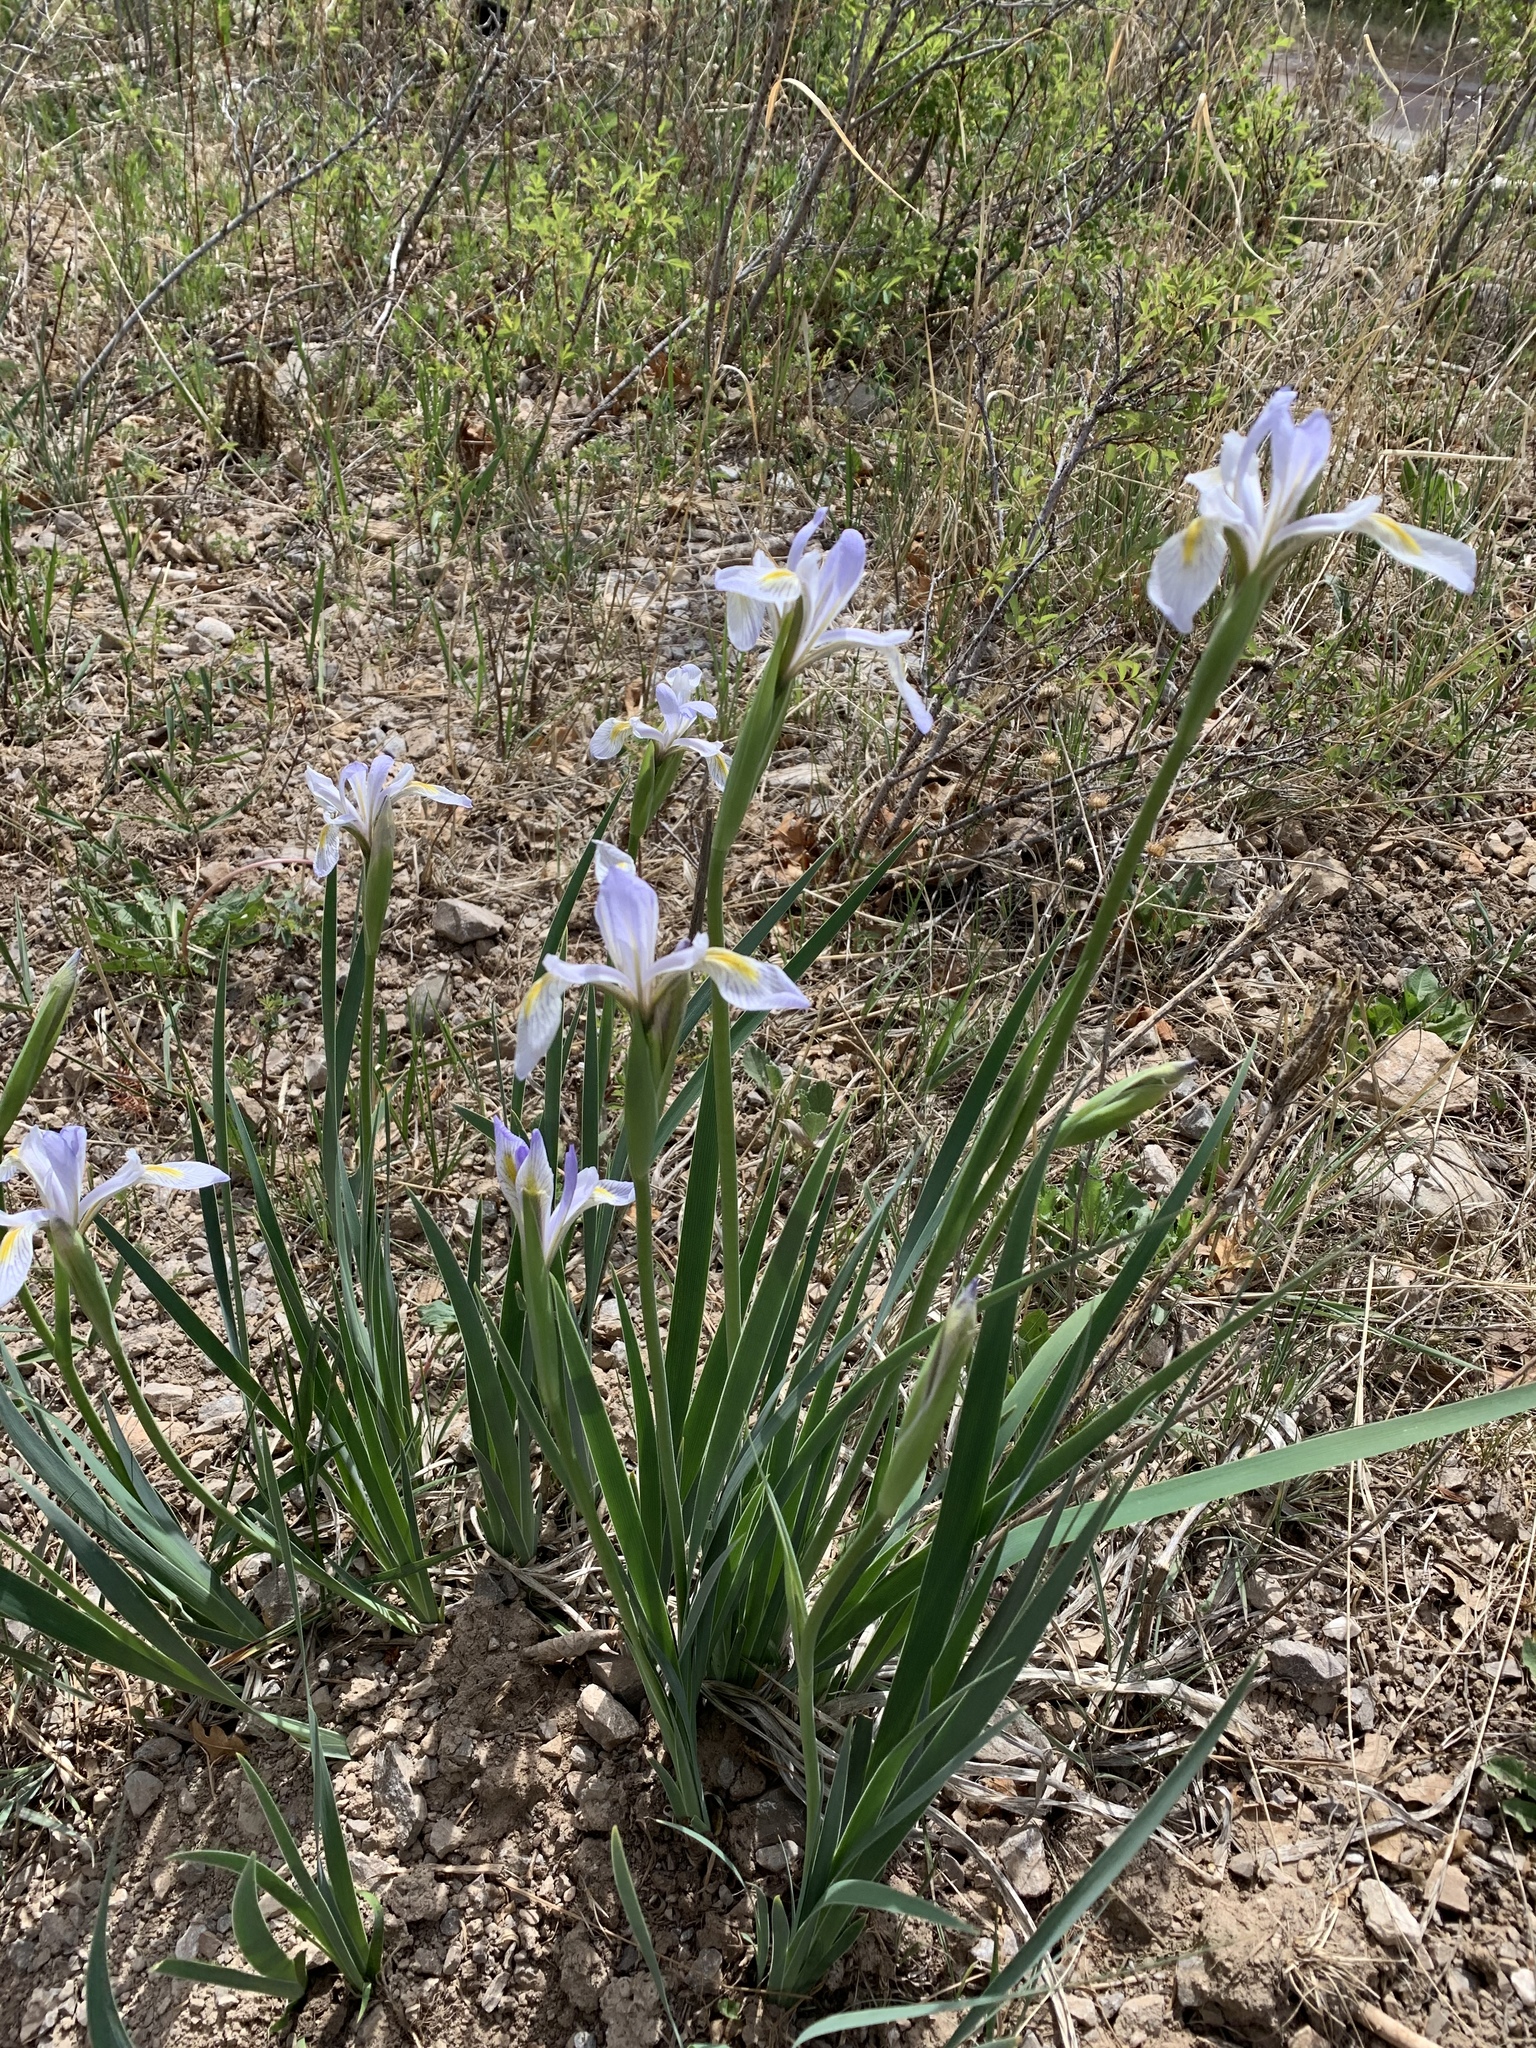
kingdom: Plantae
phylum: Tracheophyta
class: Liliopsida
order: Asparagales
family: Iridaceae
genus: Iris
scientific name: Iris missouriensis
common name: Rocky mountain iris
